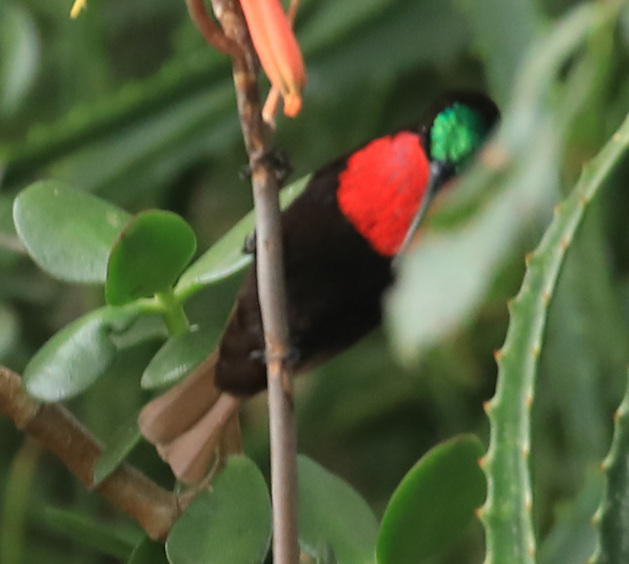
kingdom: Animalia
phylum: Chordata
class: Aves
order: Passeriformes
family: Nectariniidae
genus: Chalcomitra
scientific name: Chalcomitra senegalensis
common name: Scarlet-chested sunbird
